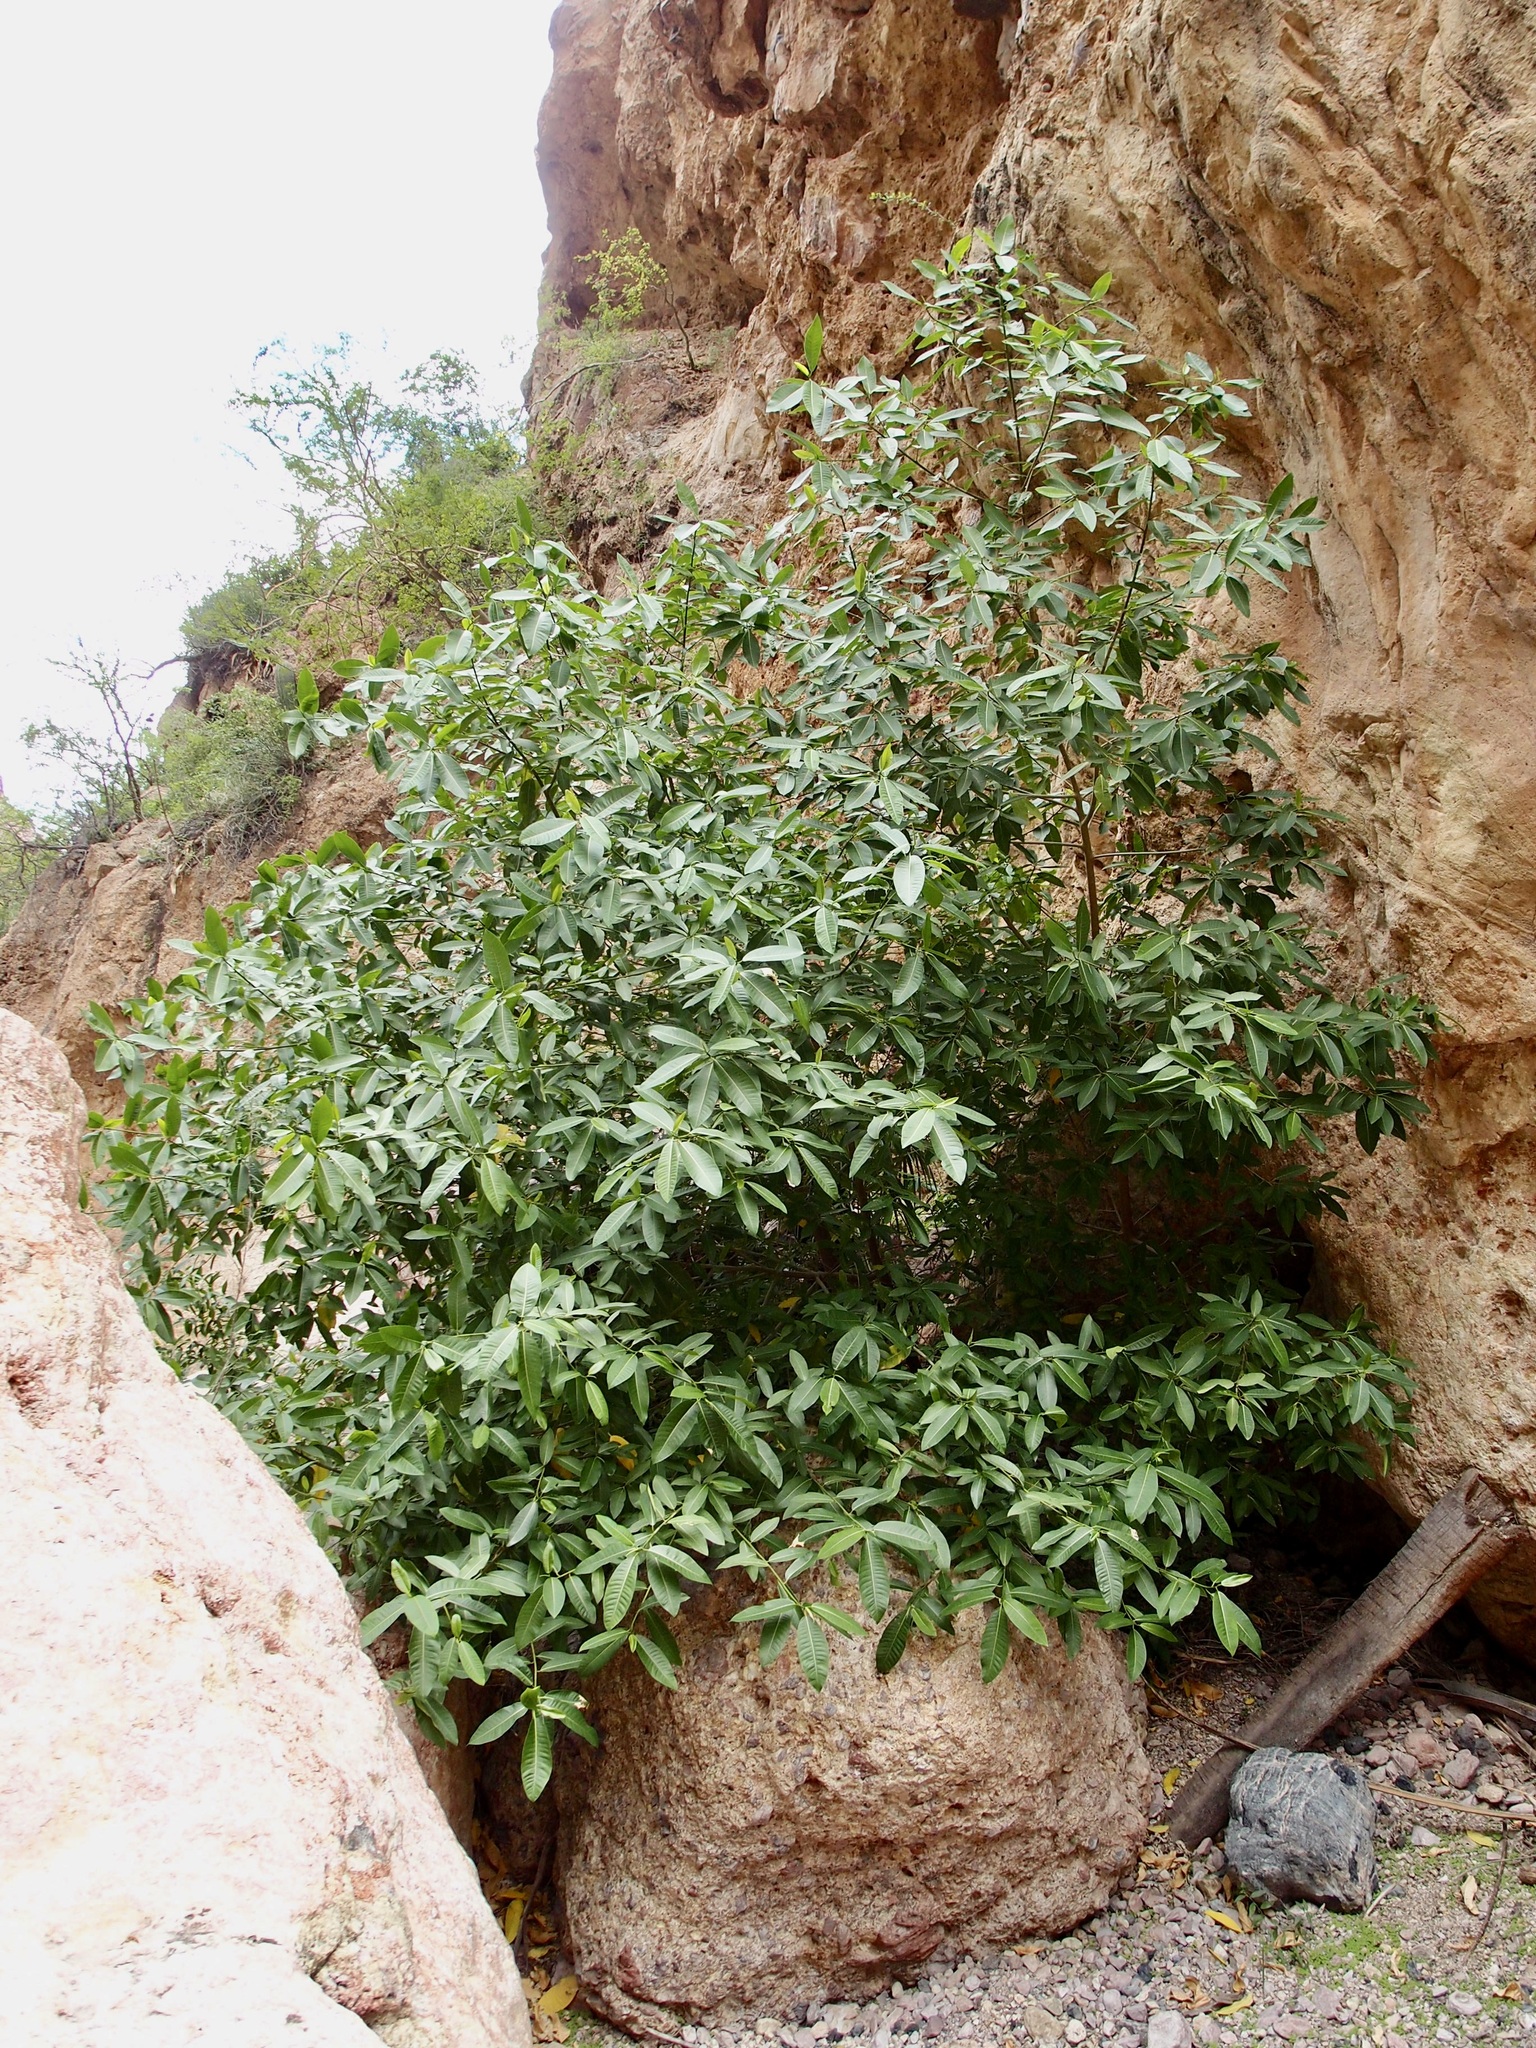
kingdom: Plantae
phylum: Tracheophyta
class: Magnoliopsida
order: Rosales
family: Moraceae
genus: Ficus
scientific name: Ficus insipida
